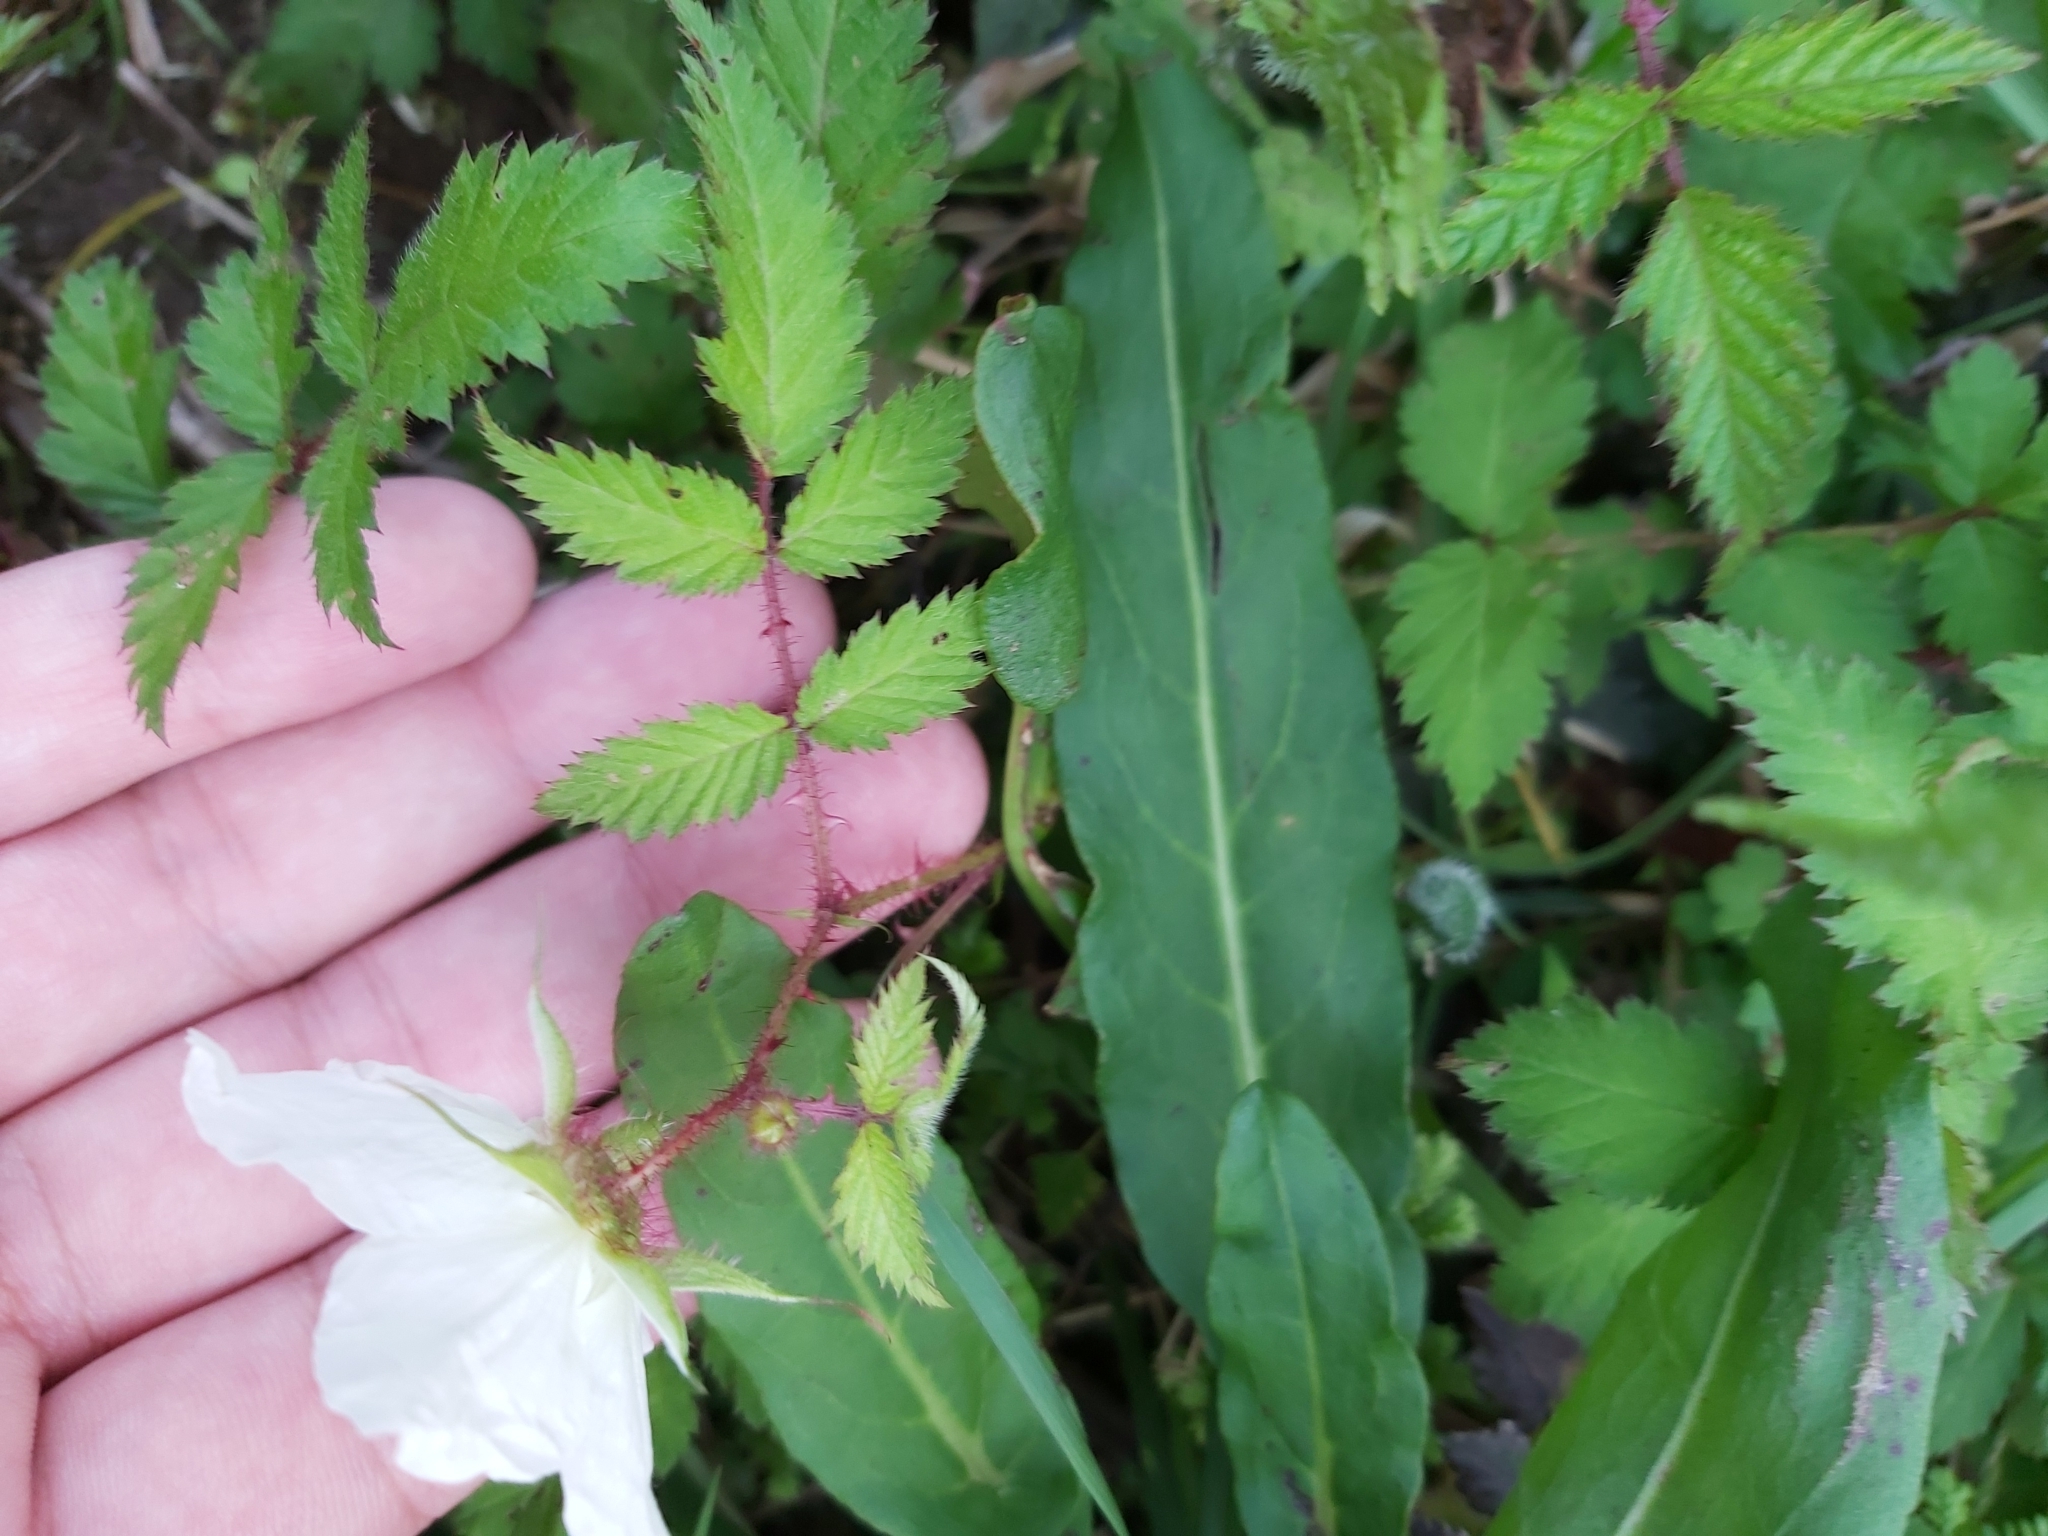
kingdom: Plantae
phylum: Tracheophyta
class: Magnoliopsida
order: Rosales
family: Rosaceae
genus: Rubus
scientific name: Rubus croceacanthus
